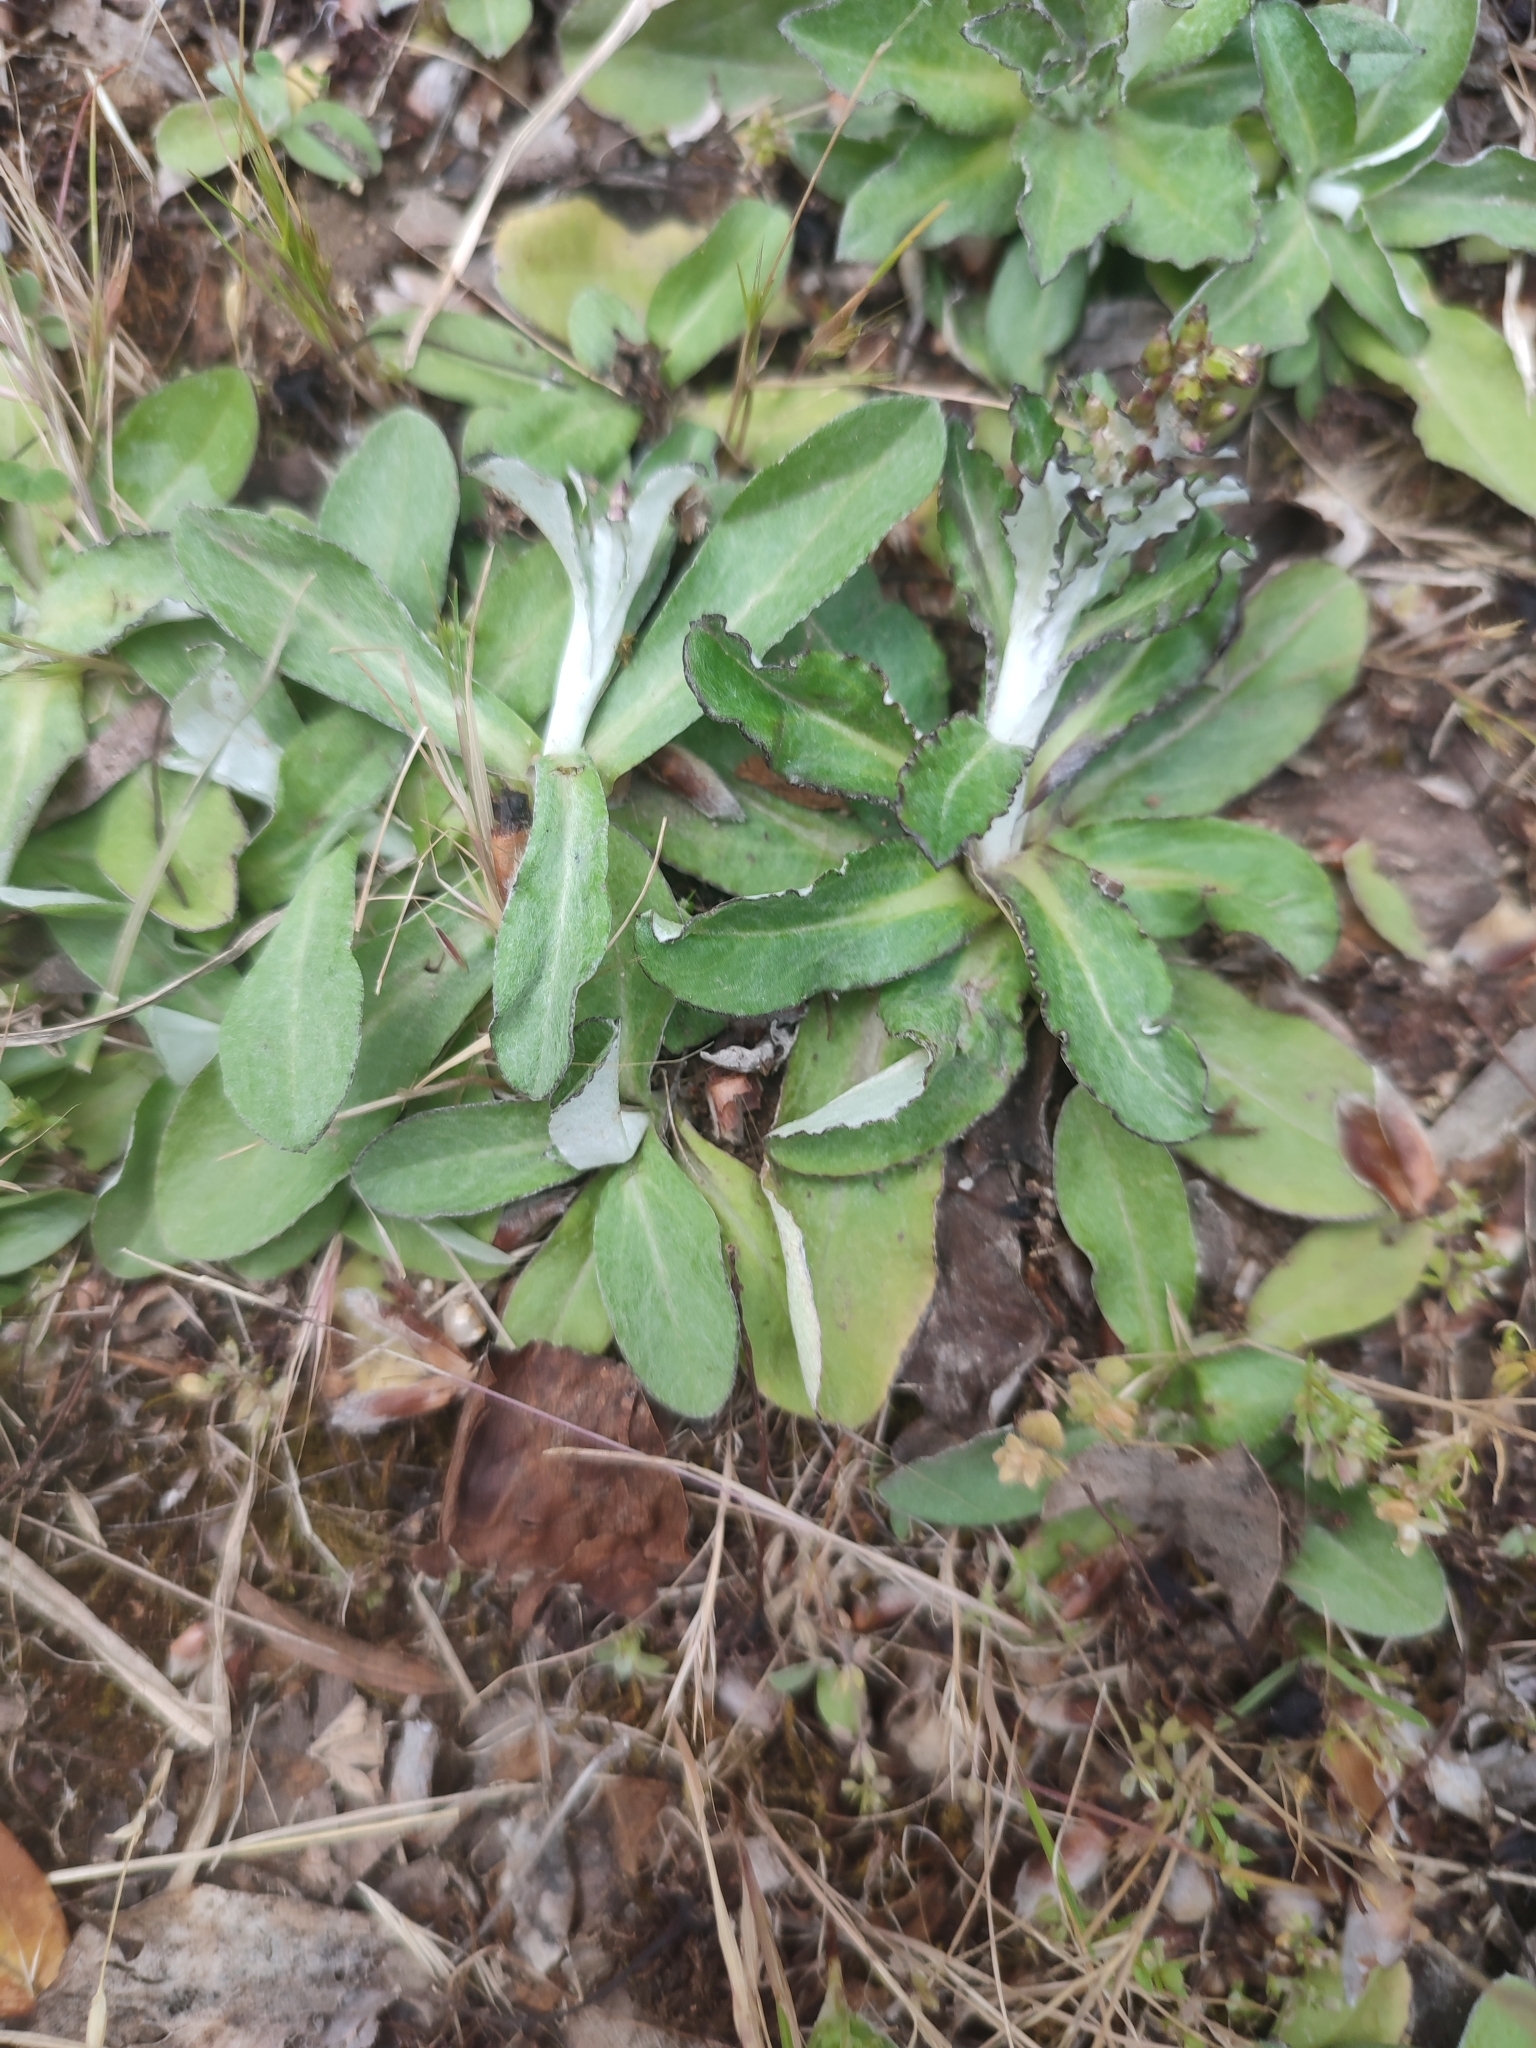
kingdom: Plantae
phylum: Tracheophyta
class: Magnoliopsida
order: Asterales
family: Asteraceae
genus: Gamochaeta
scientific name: Gamochaeta
